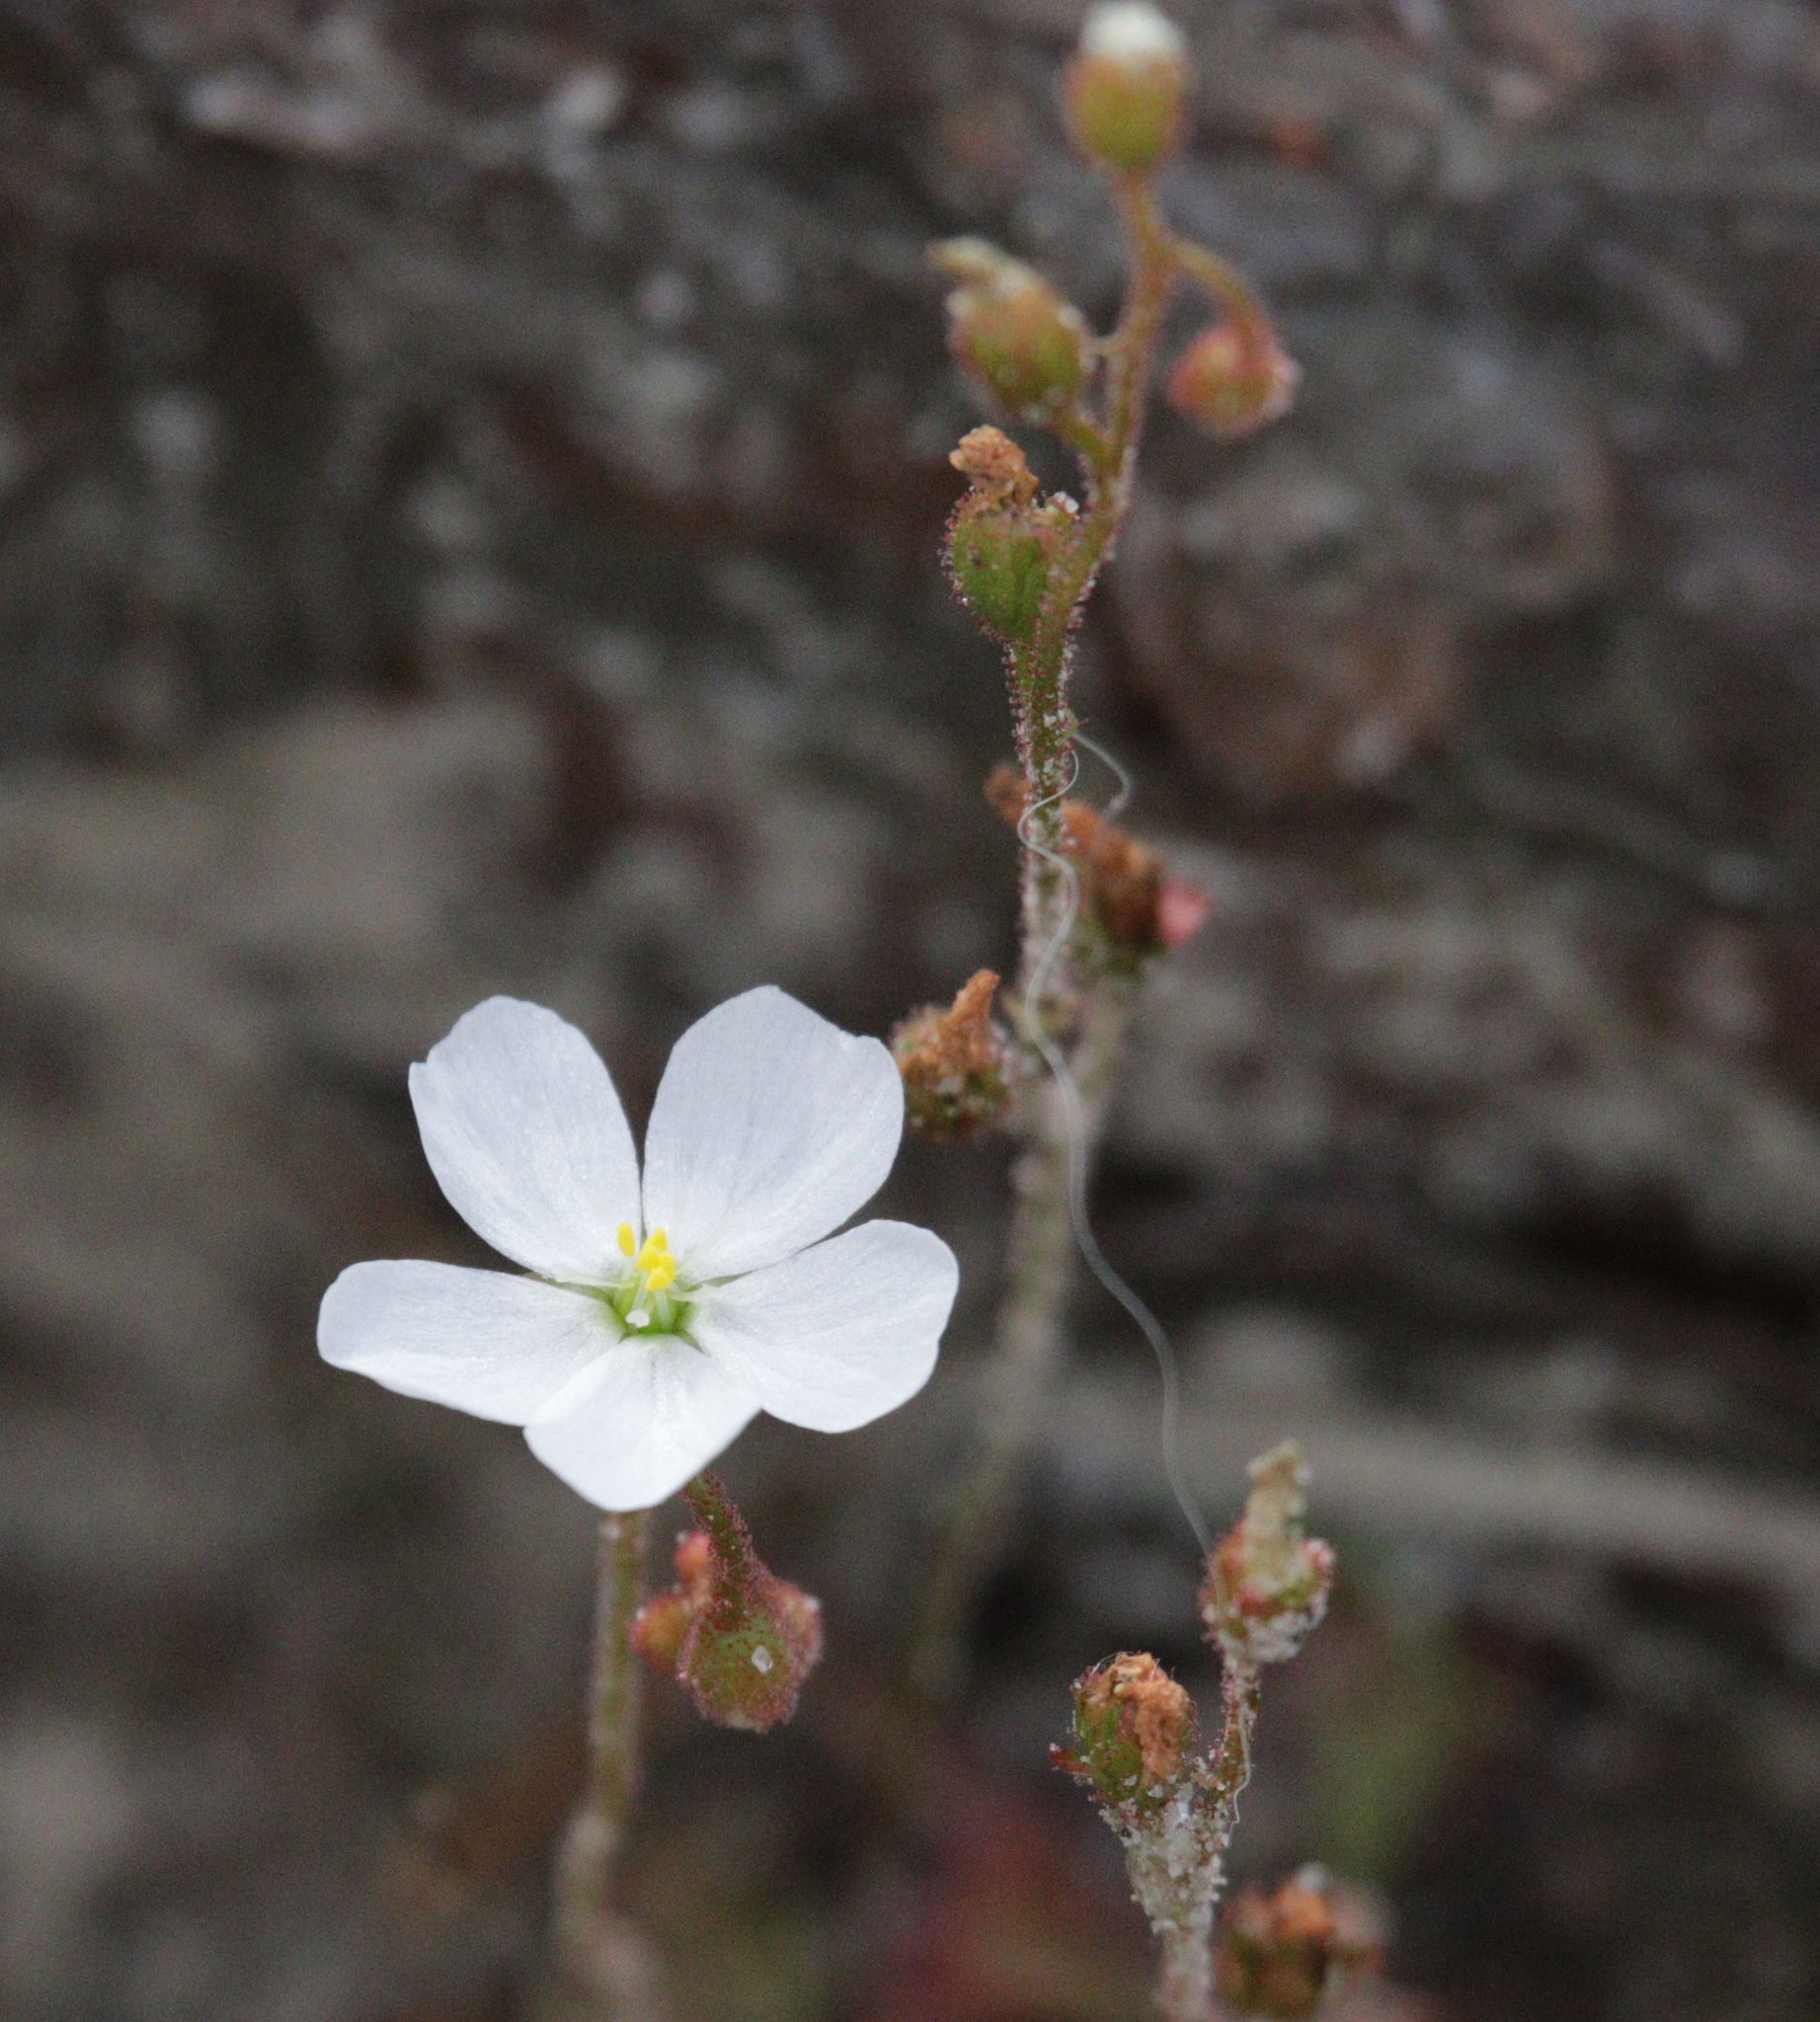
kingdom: Plantae
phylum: Tracheophyta
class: Magnoliopsida
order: Caryophyllales
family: Droseraceae
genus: Drosera
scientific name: Drosera brevifolia
